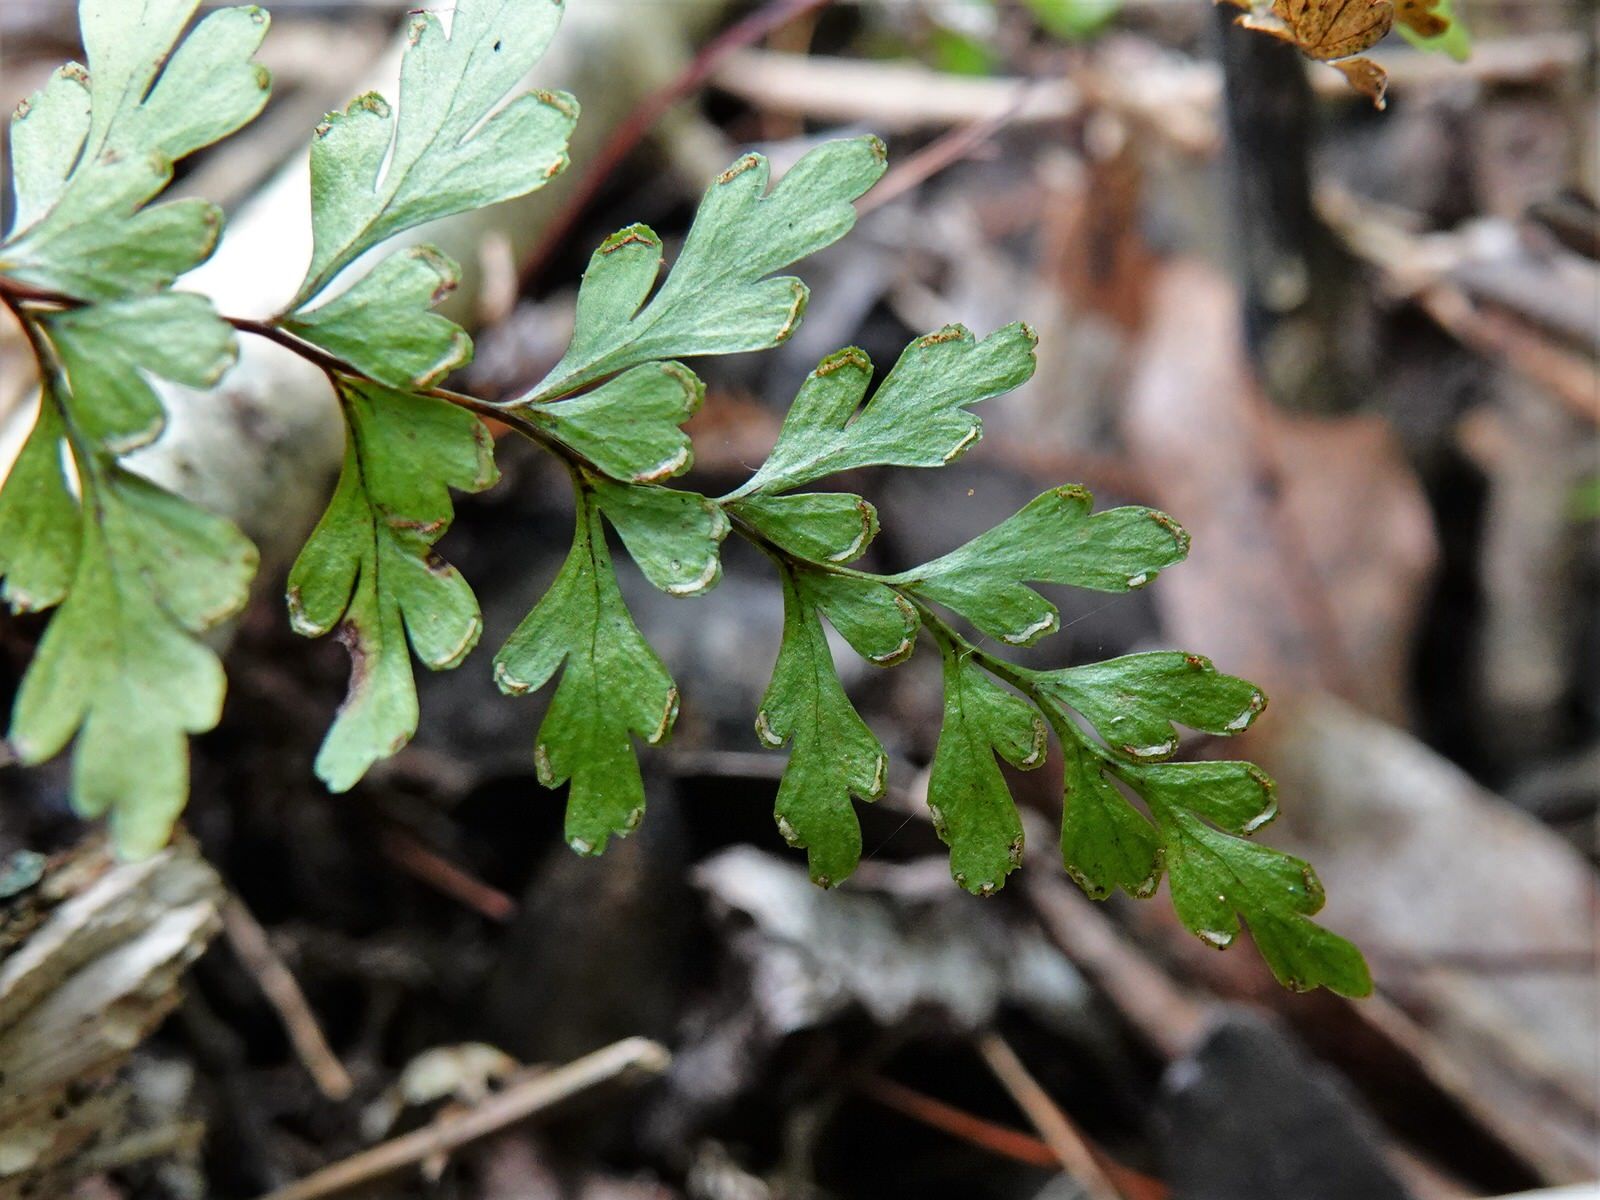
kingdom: Plantae
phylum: Tracheophyta
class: Polypodiopsida
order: Polypodiales
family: Lindsaeaceae
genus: Lindsaea
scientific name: Lindsaea trichomanoides
